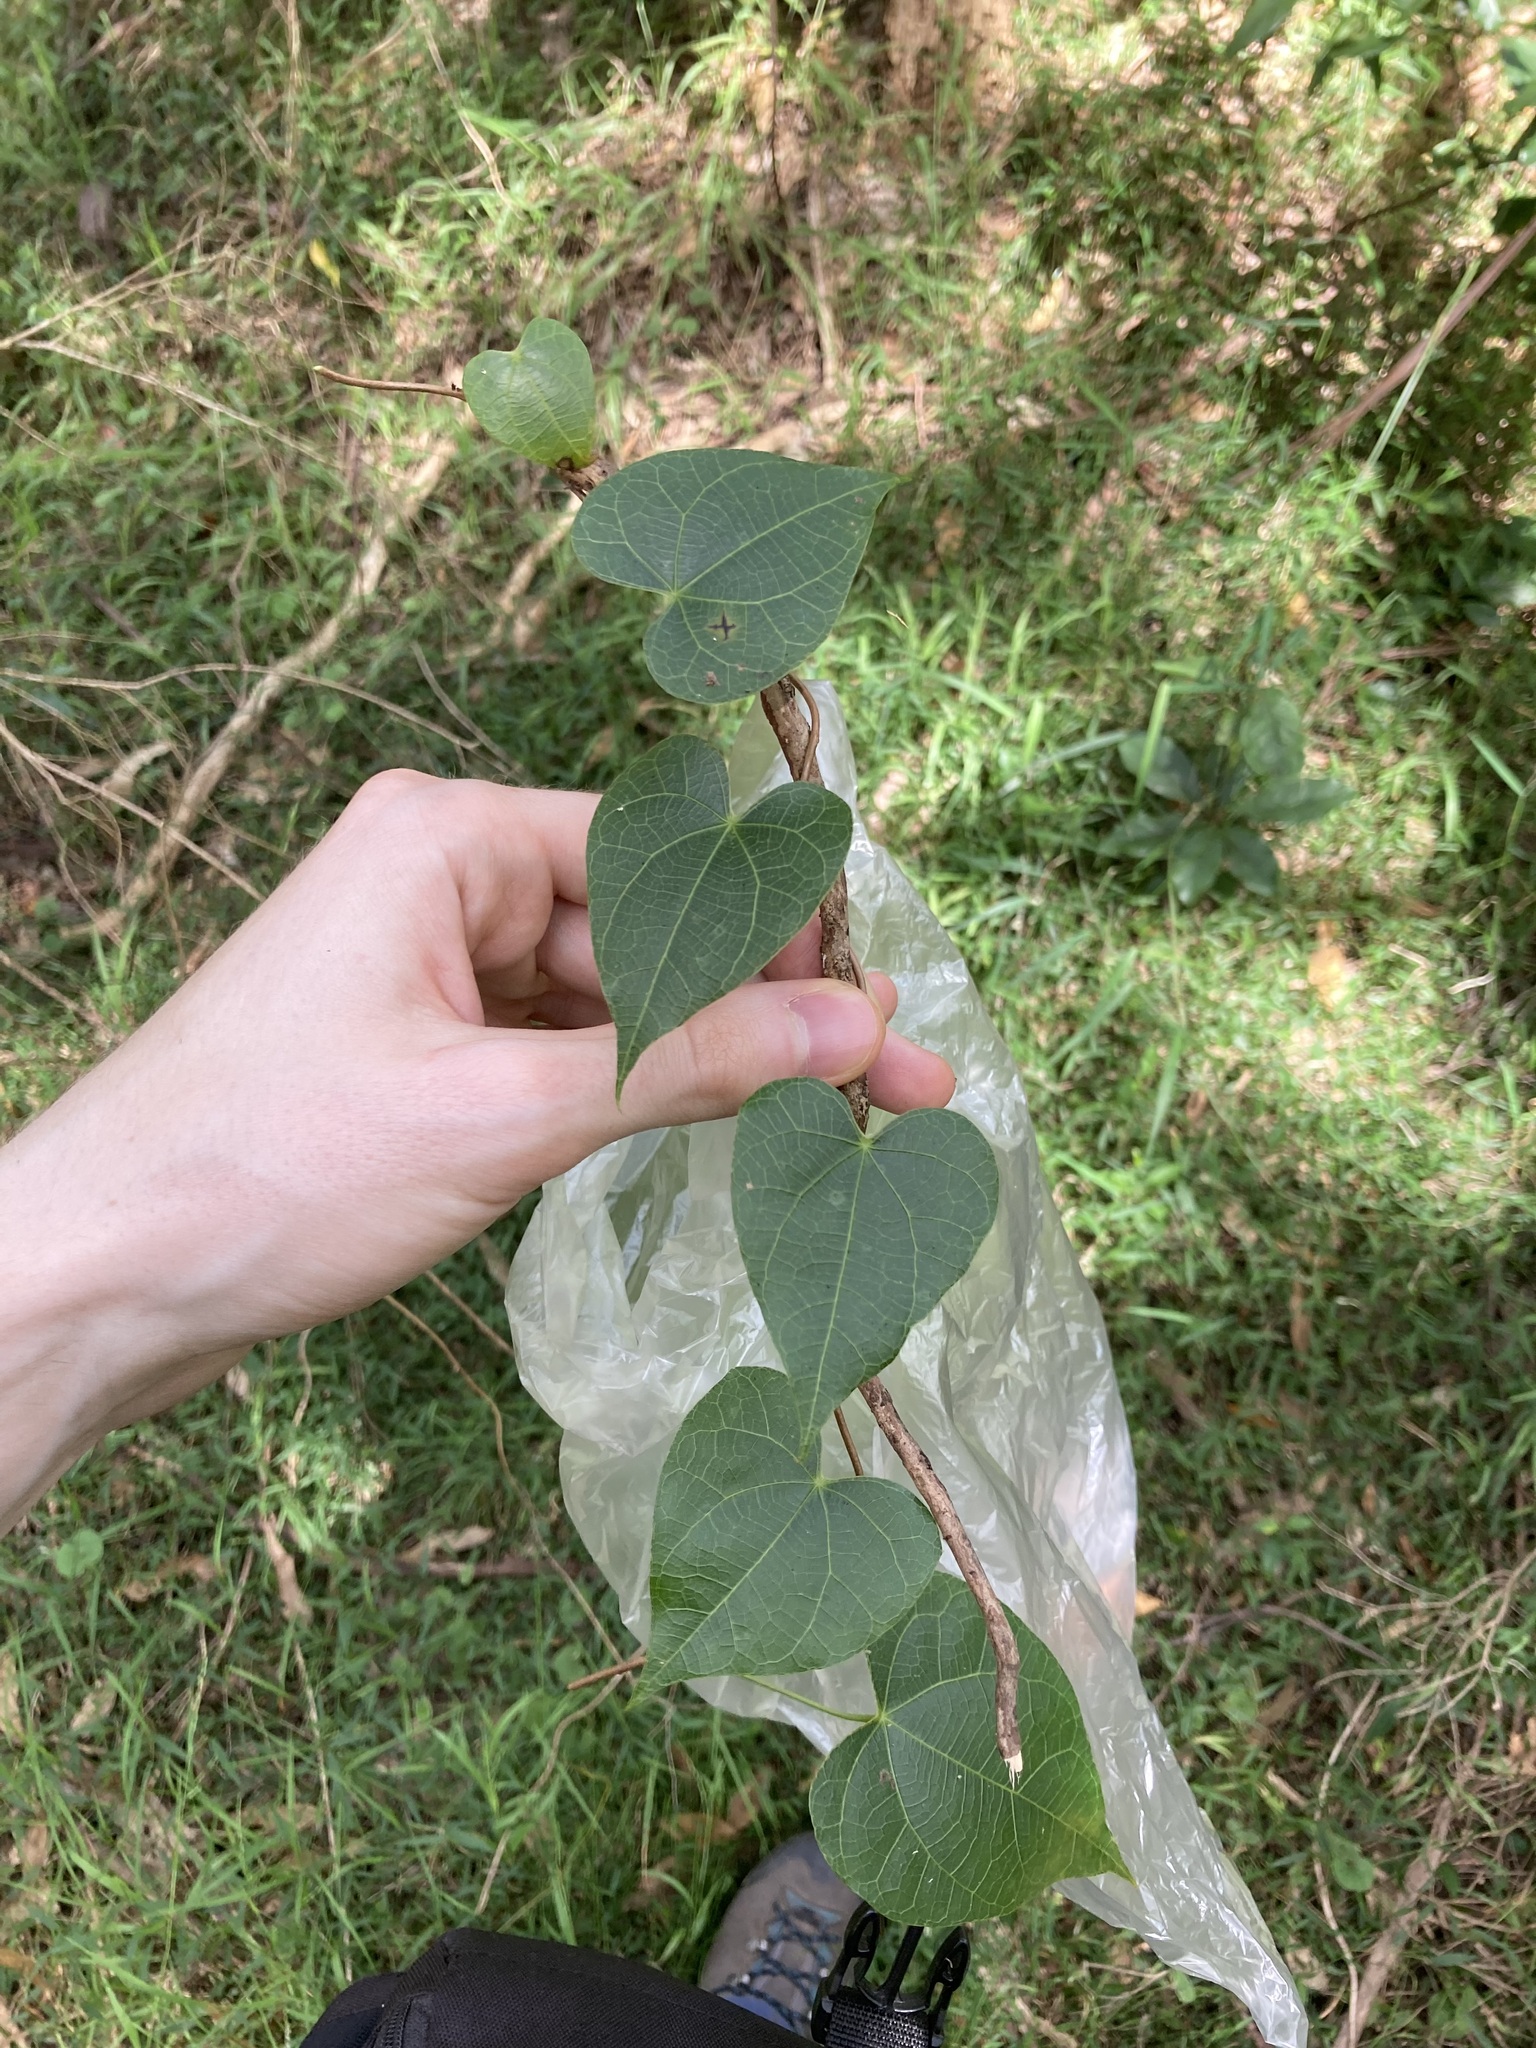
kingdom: Plantae
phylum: Tracheophyta
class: Magnoliopsida
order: Ranunculales
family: Menispermaceae
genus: Sarcopetalum
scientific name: Sarcopetalum harveyanum
